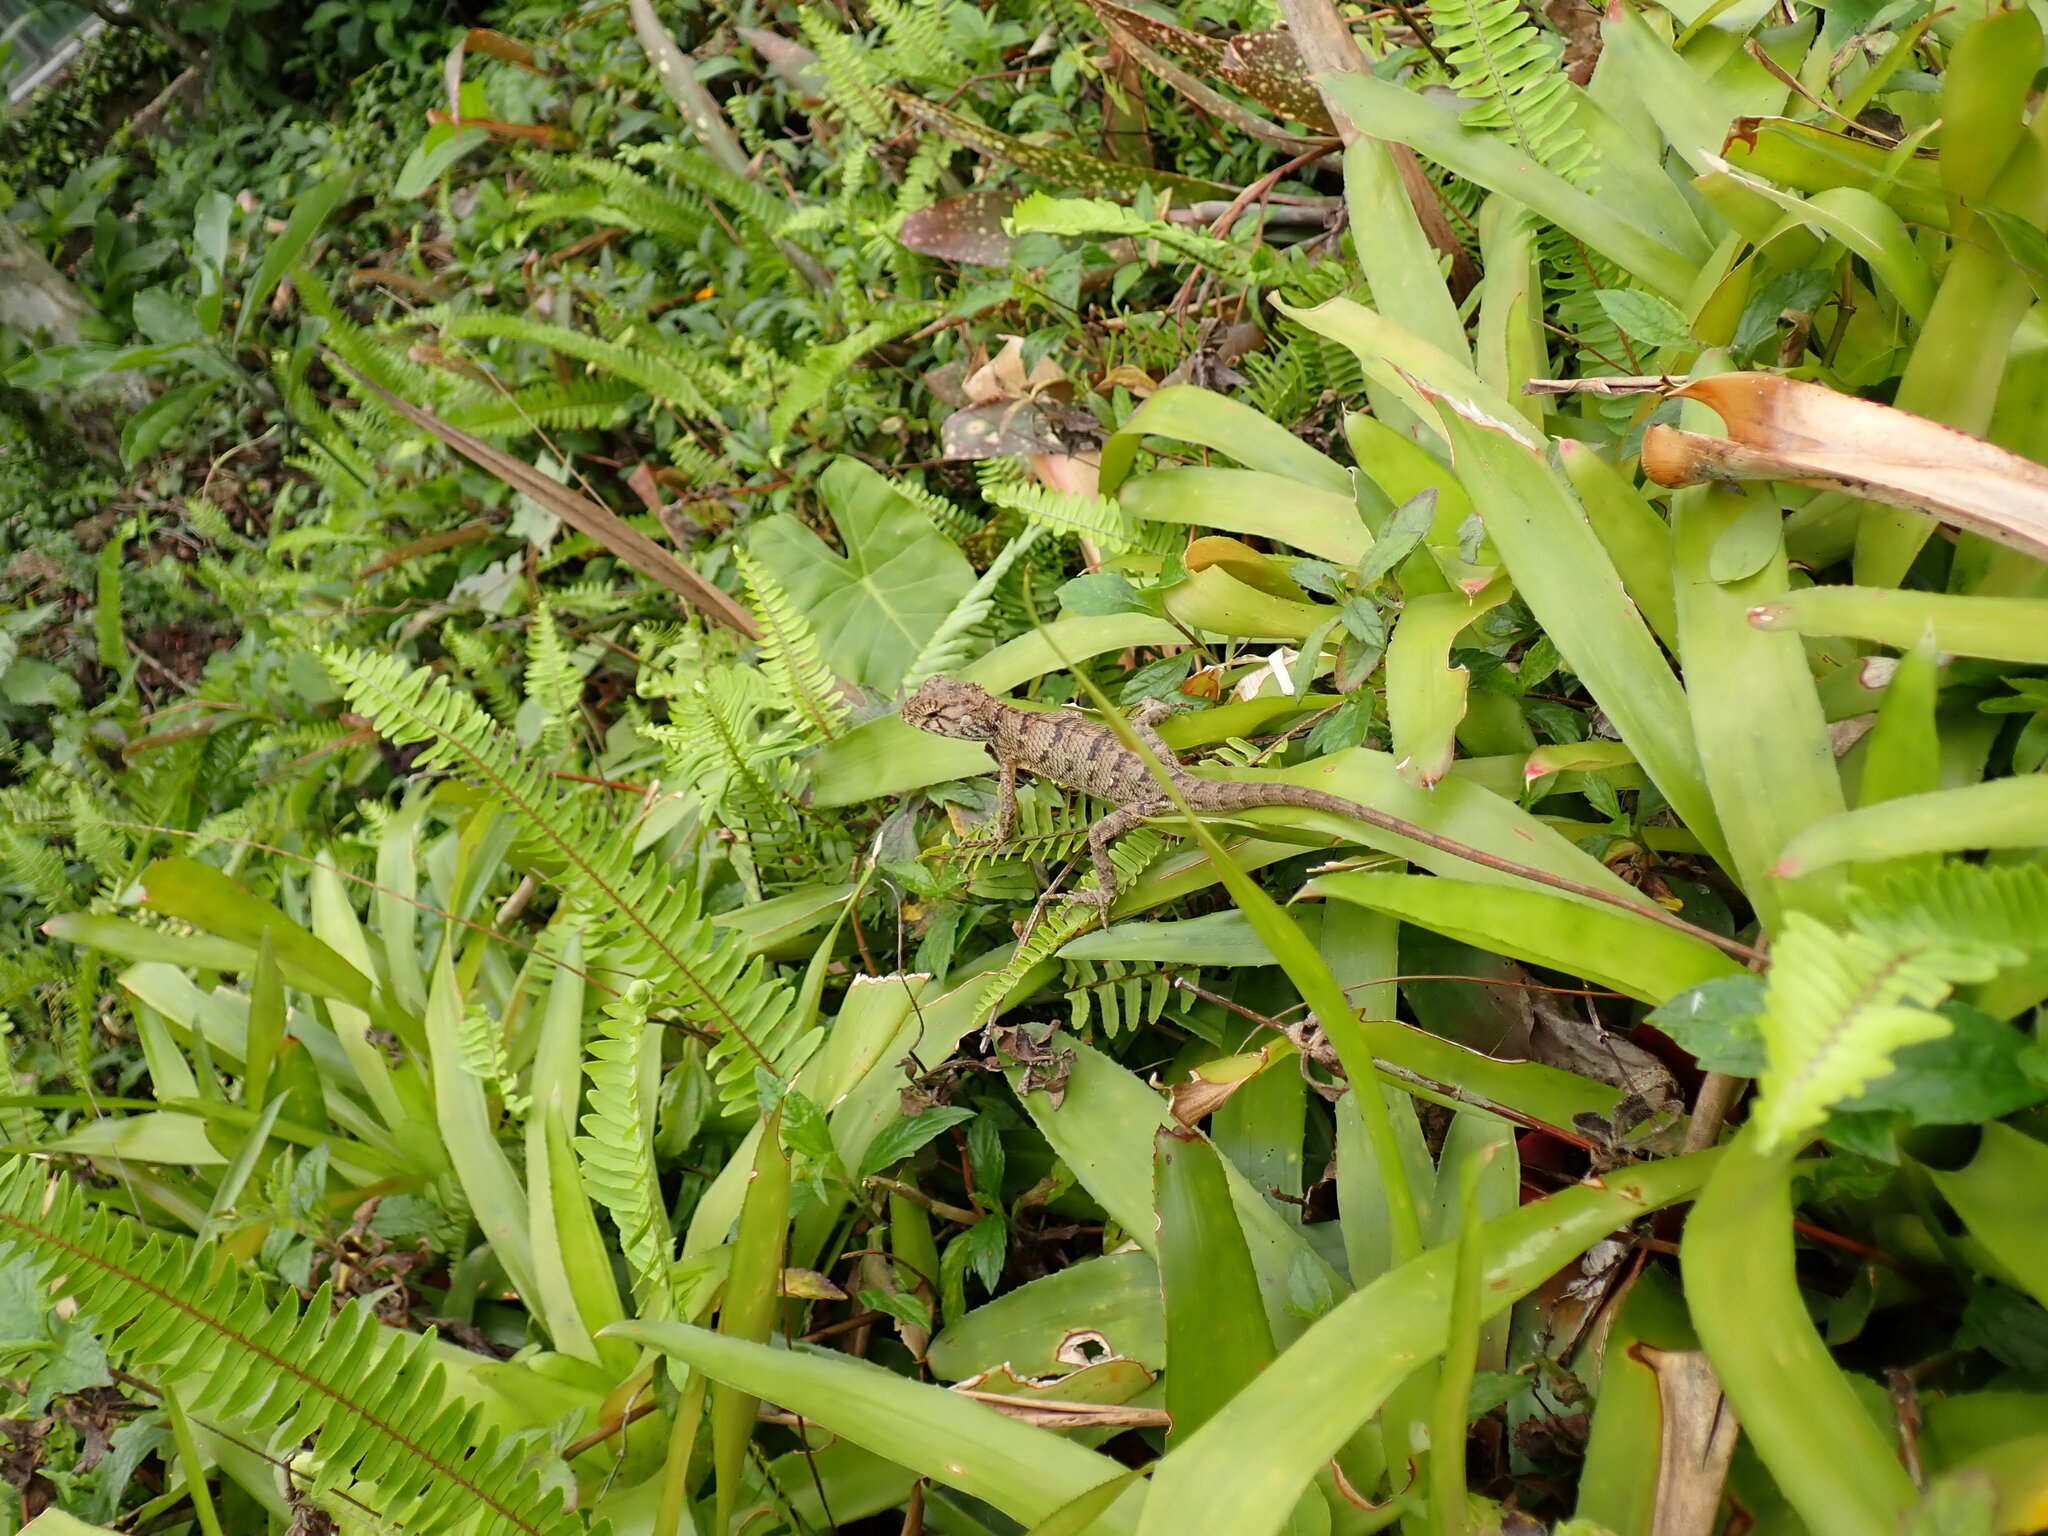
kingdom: Animalia
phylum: Chordata
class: Squamata
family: Agamidae
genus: Calotes
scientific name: Calotes versicolor
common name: Oriental garden lizard
